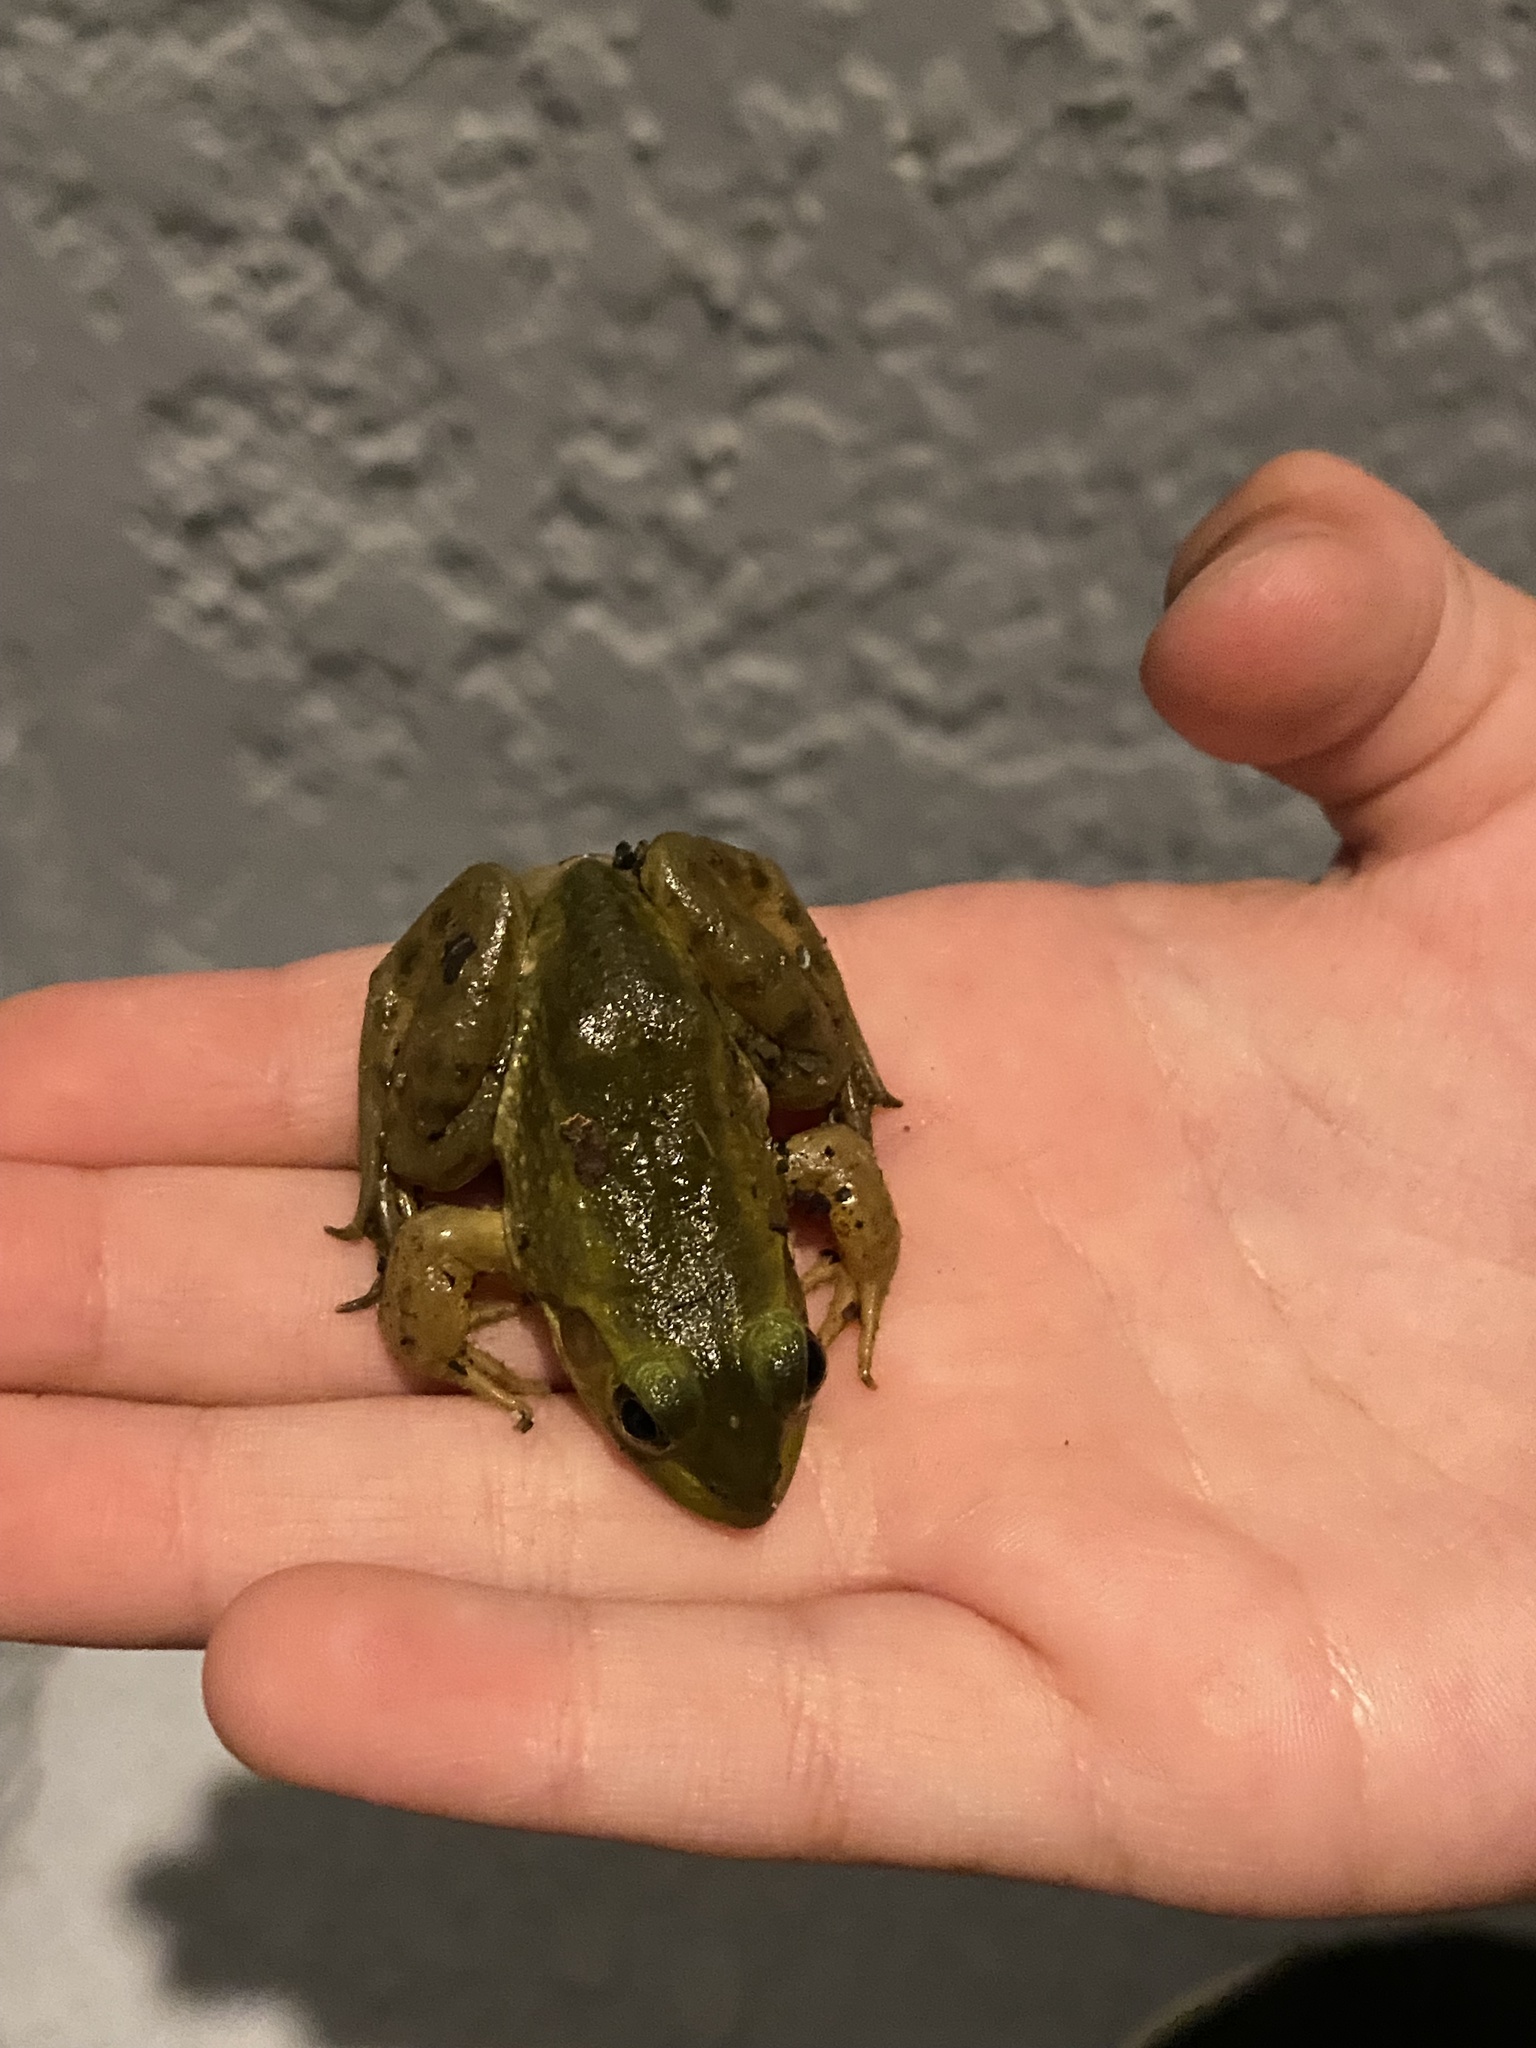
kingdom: Animalia
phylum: Chordata
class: Amphibia
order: Anura
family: Ranidae
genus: Lithobates
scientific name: Lithobates grylio
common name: Pig frog
